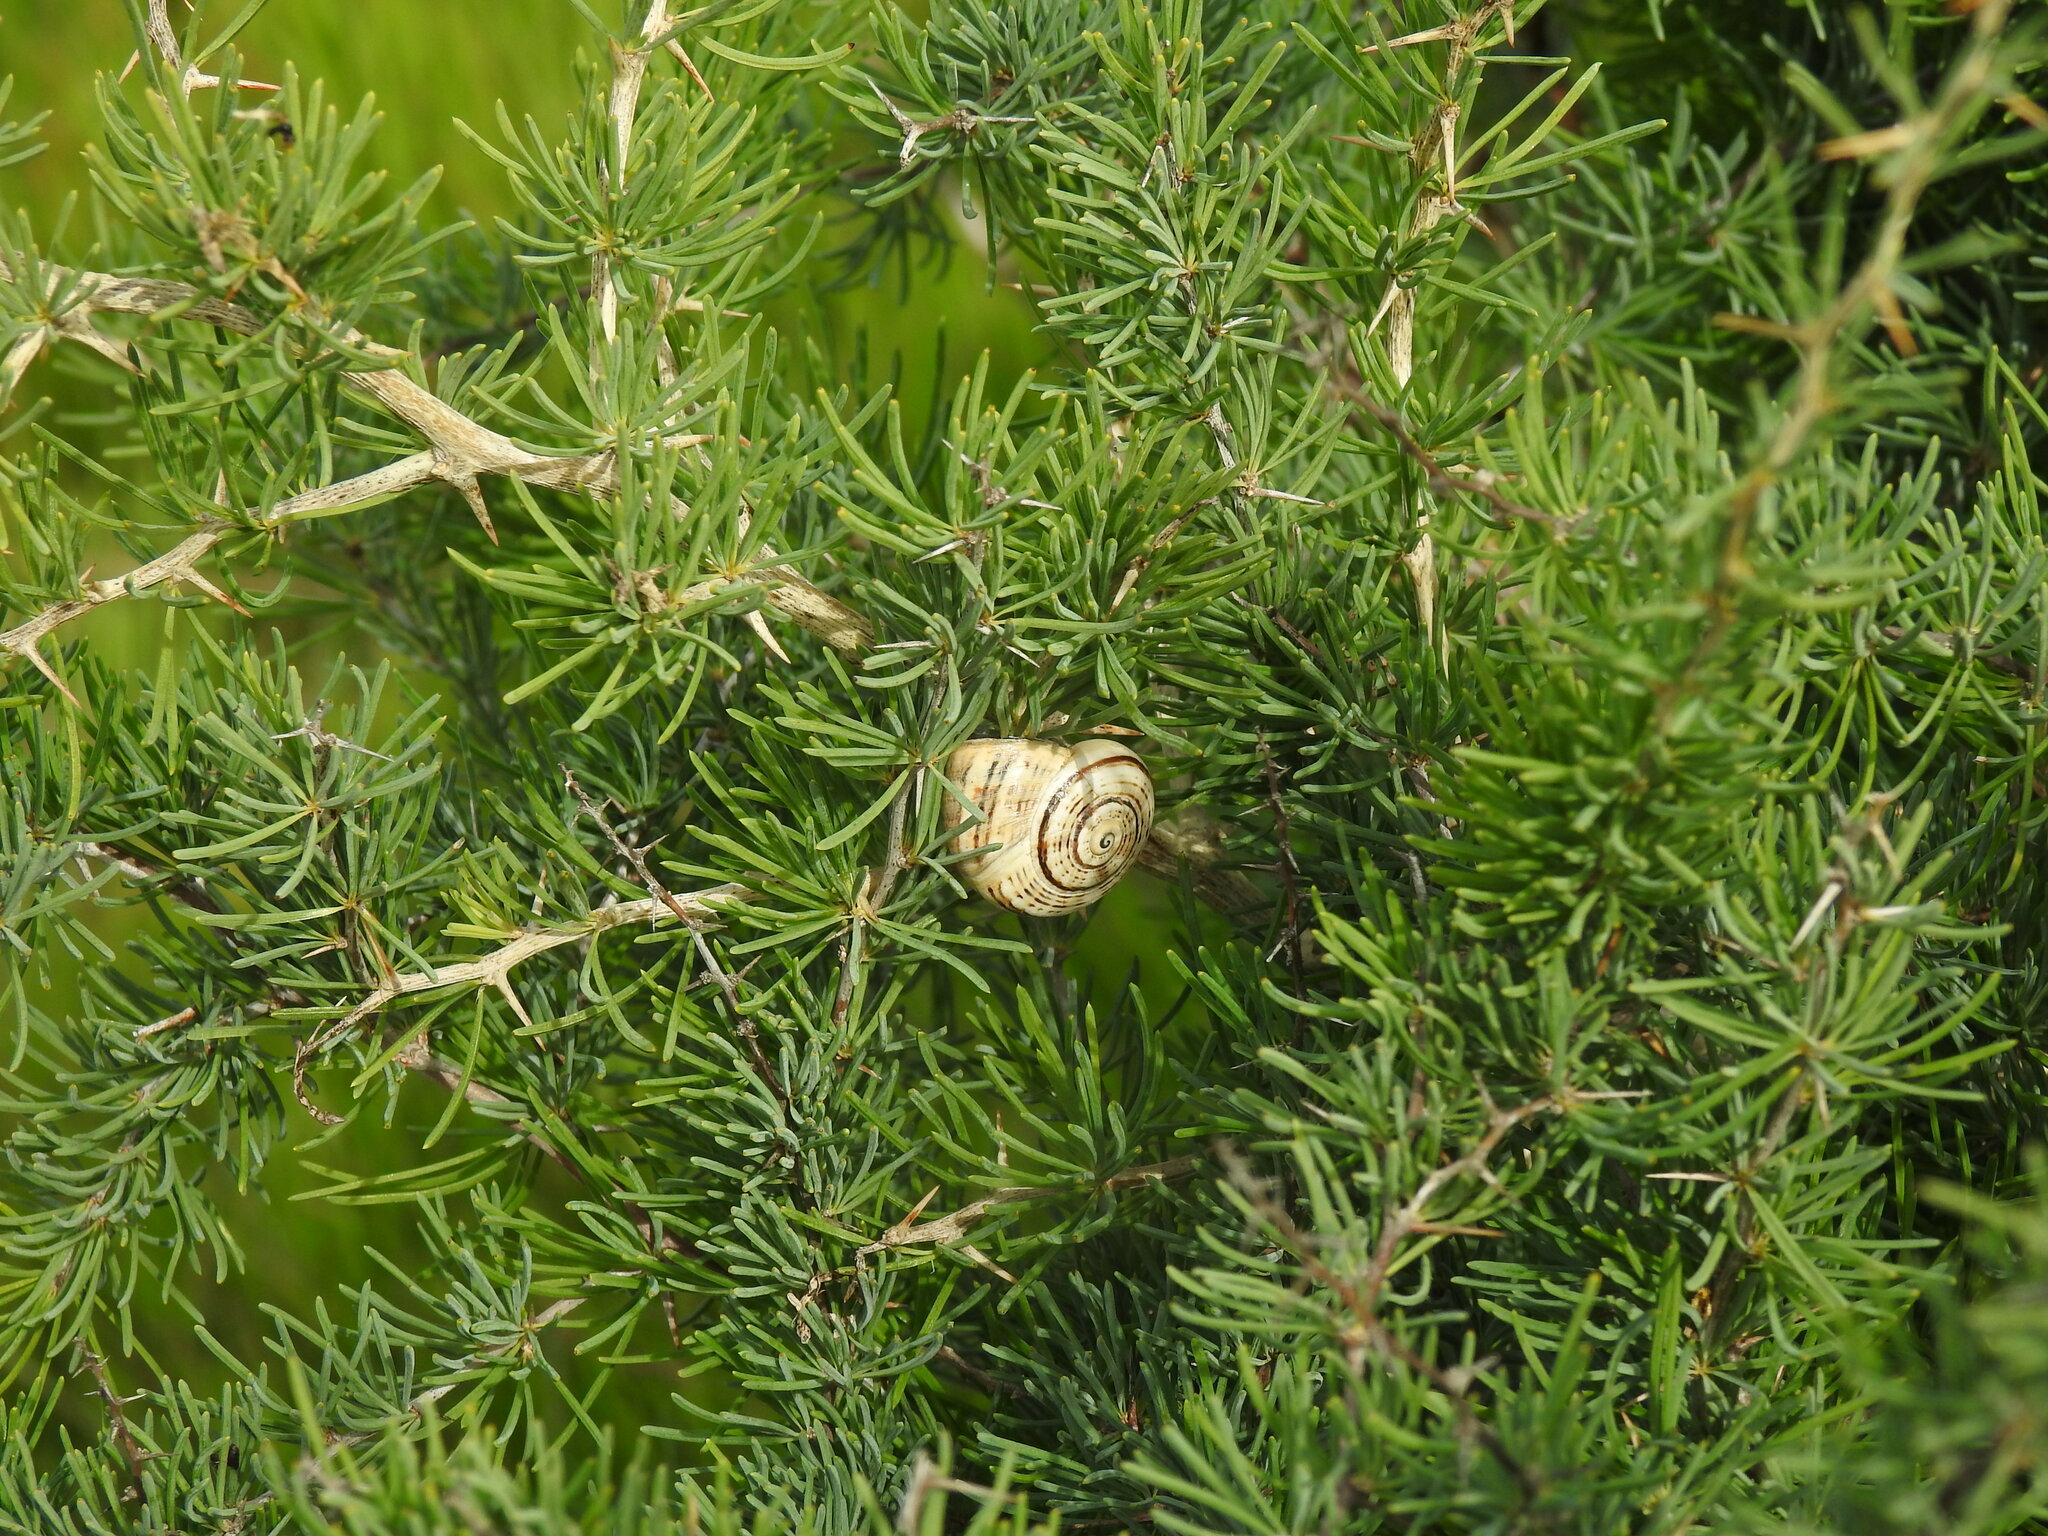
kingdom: Animalia
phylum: Mollusca
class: Gastropoda
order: Stylommatophora
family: Helicidae
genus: Theba
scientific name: Theba pisana
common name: White snail
